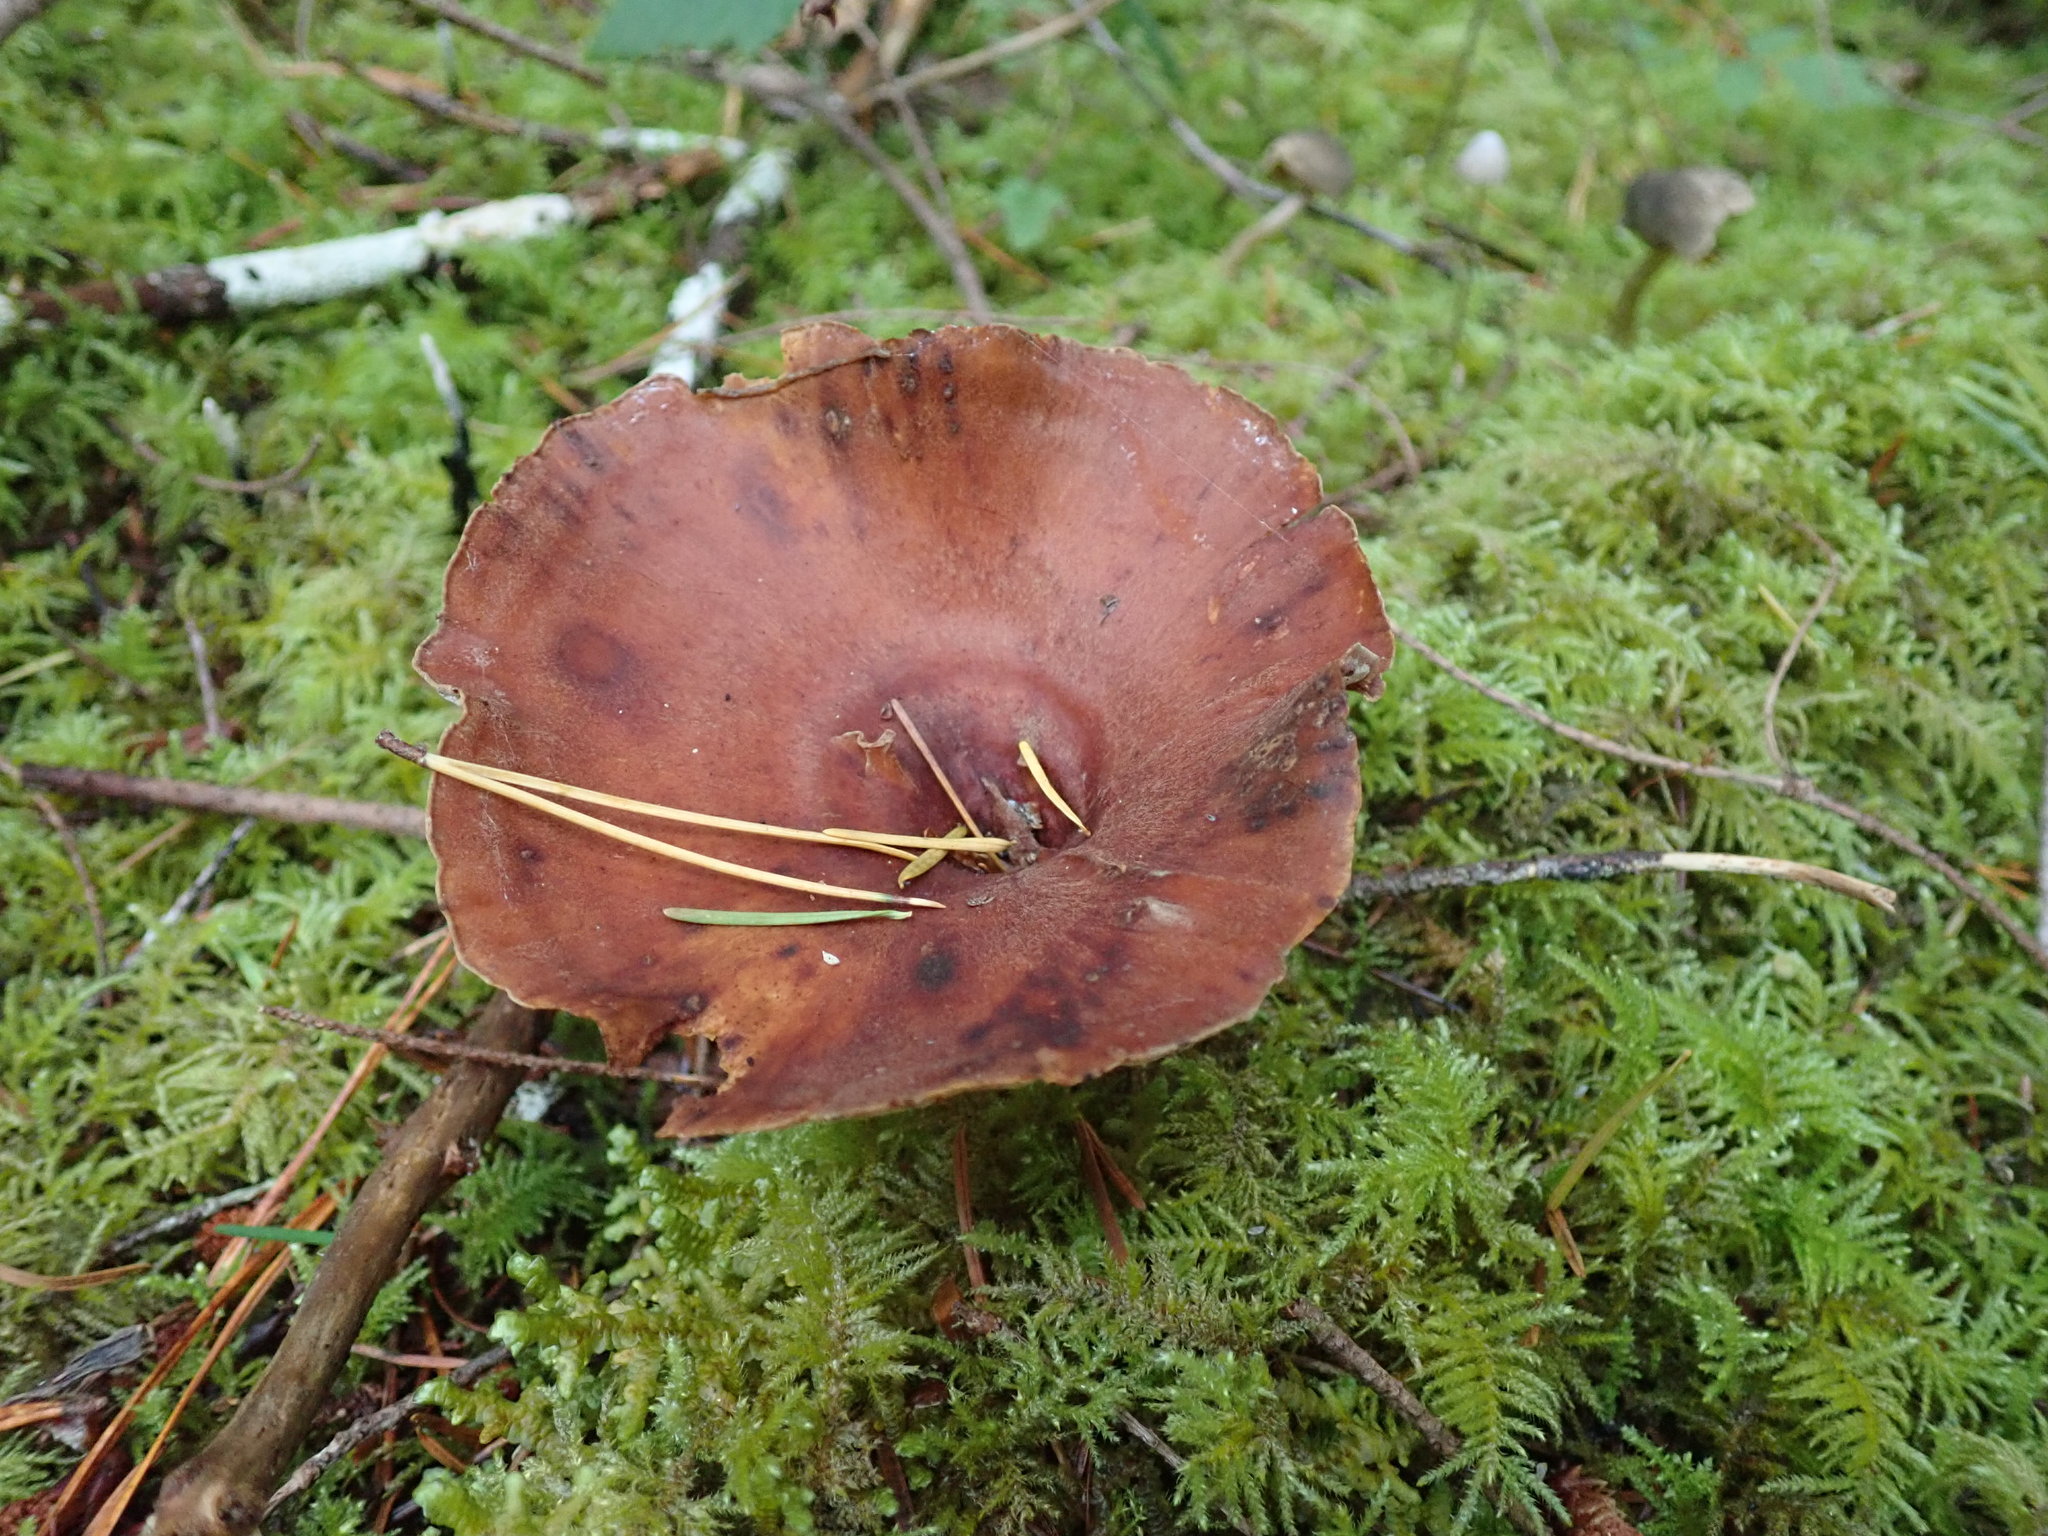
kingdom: Fungi
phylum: Basidiomycota
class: Agaricomycetes
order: Polyporales
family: Polyporaceae
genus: Picipes
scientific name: Picipes badius
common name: Bay polypore
